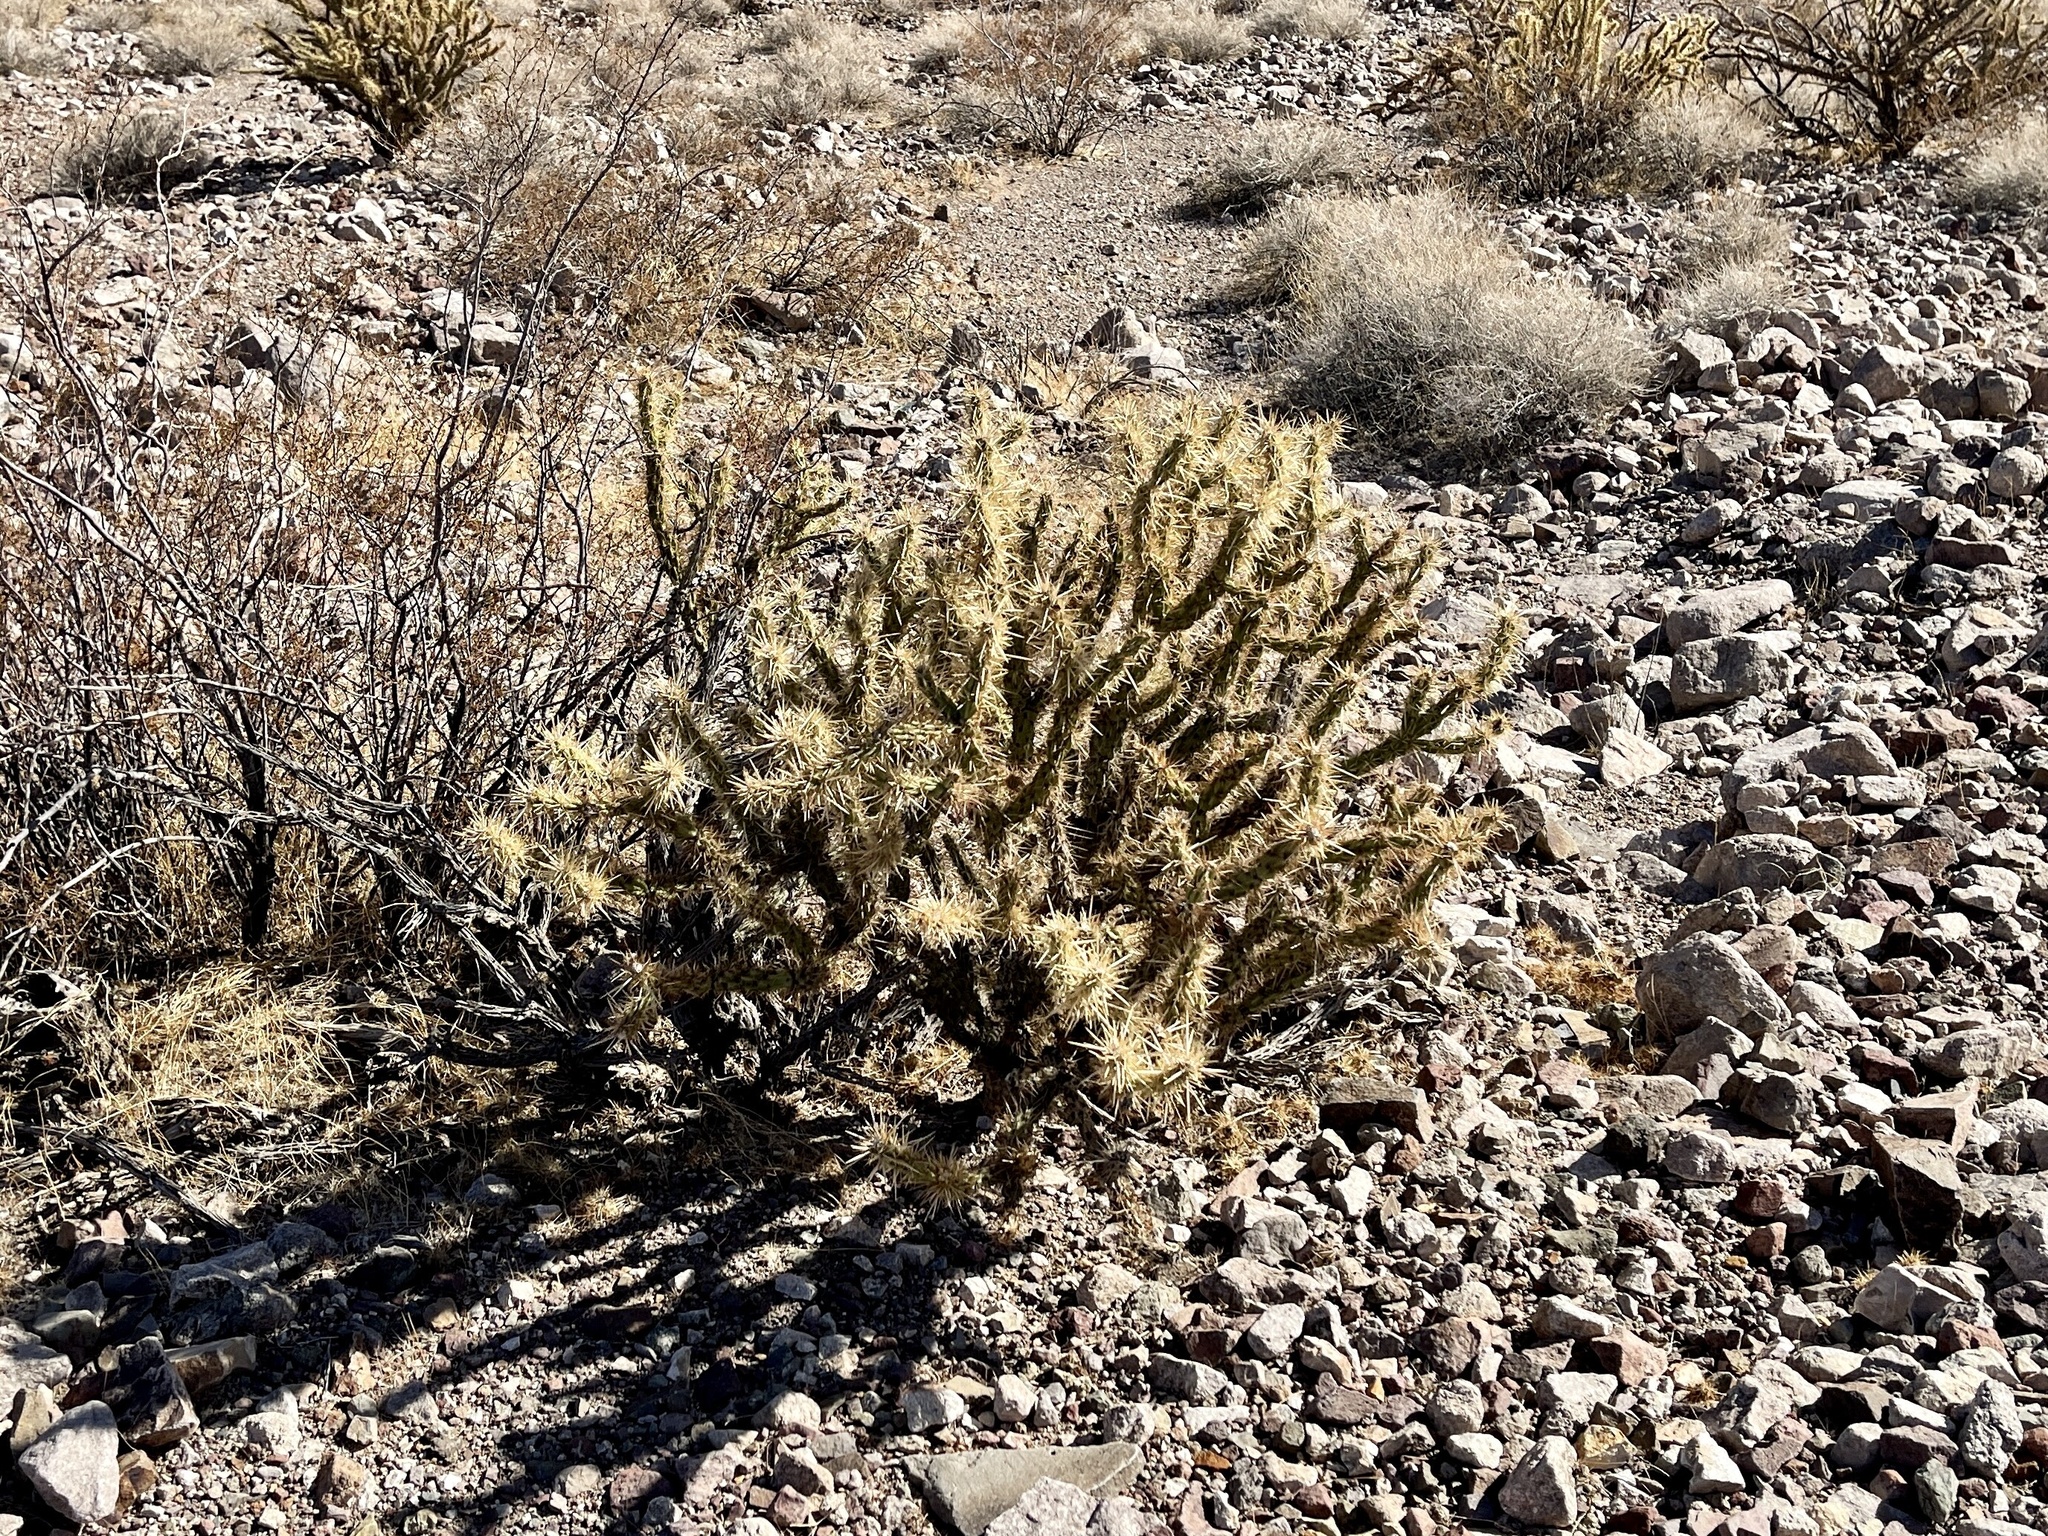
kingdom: Plantae
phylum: Tracheophyta
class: Magnoliopsida
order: Caryophyllales
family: Cactaceae
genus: Cylindropuntia
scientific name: Cylindropuntia acanthocarpa
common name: Buckhorn cholla
